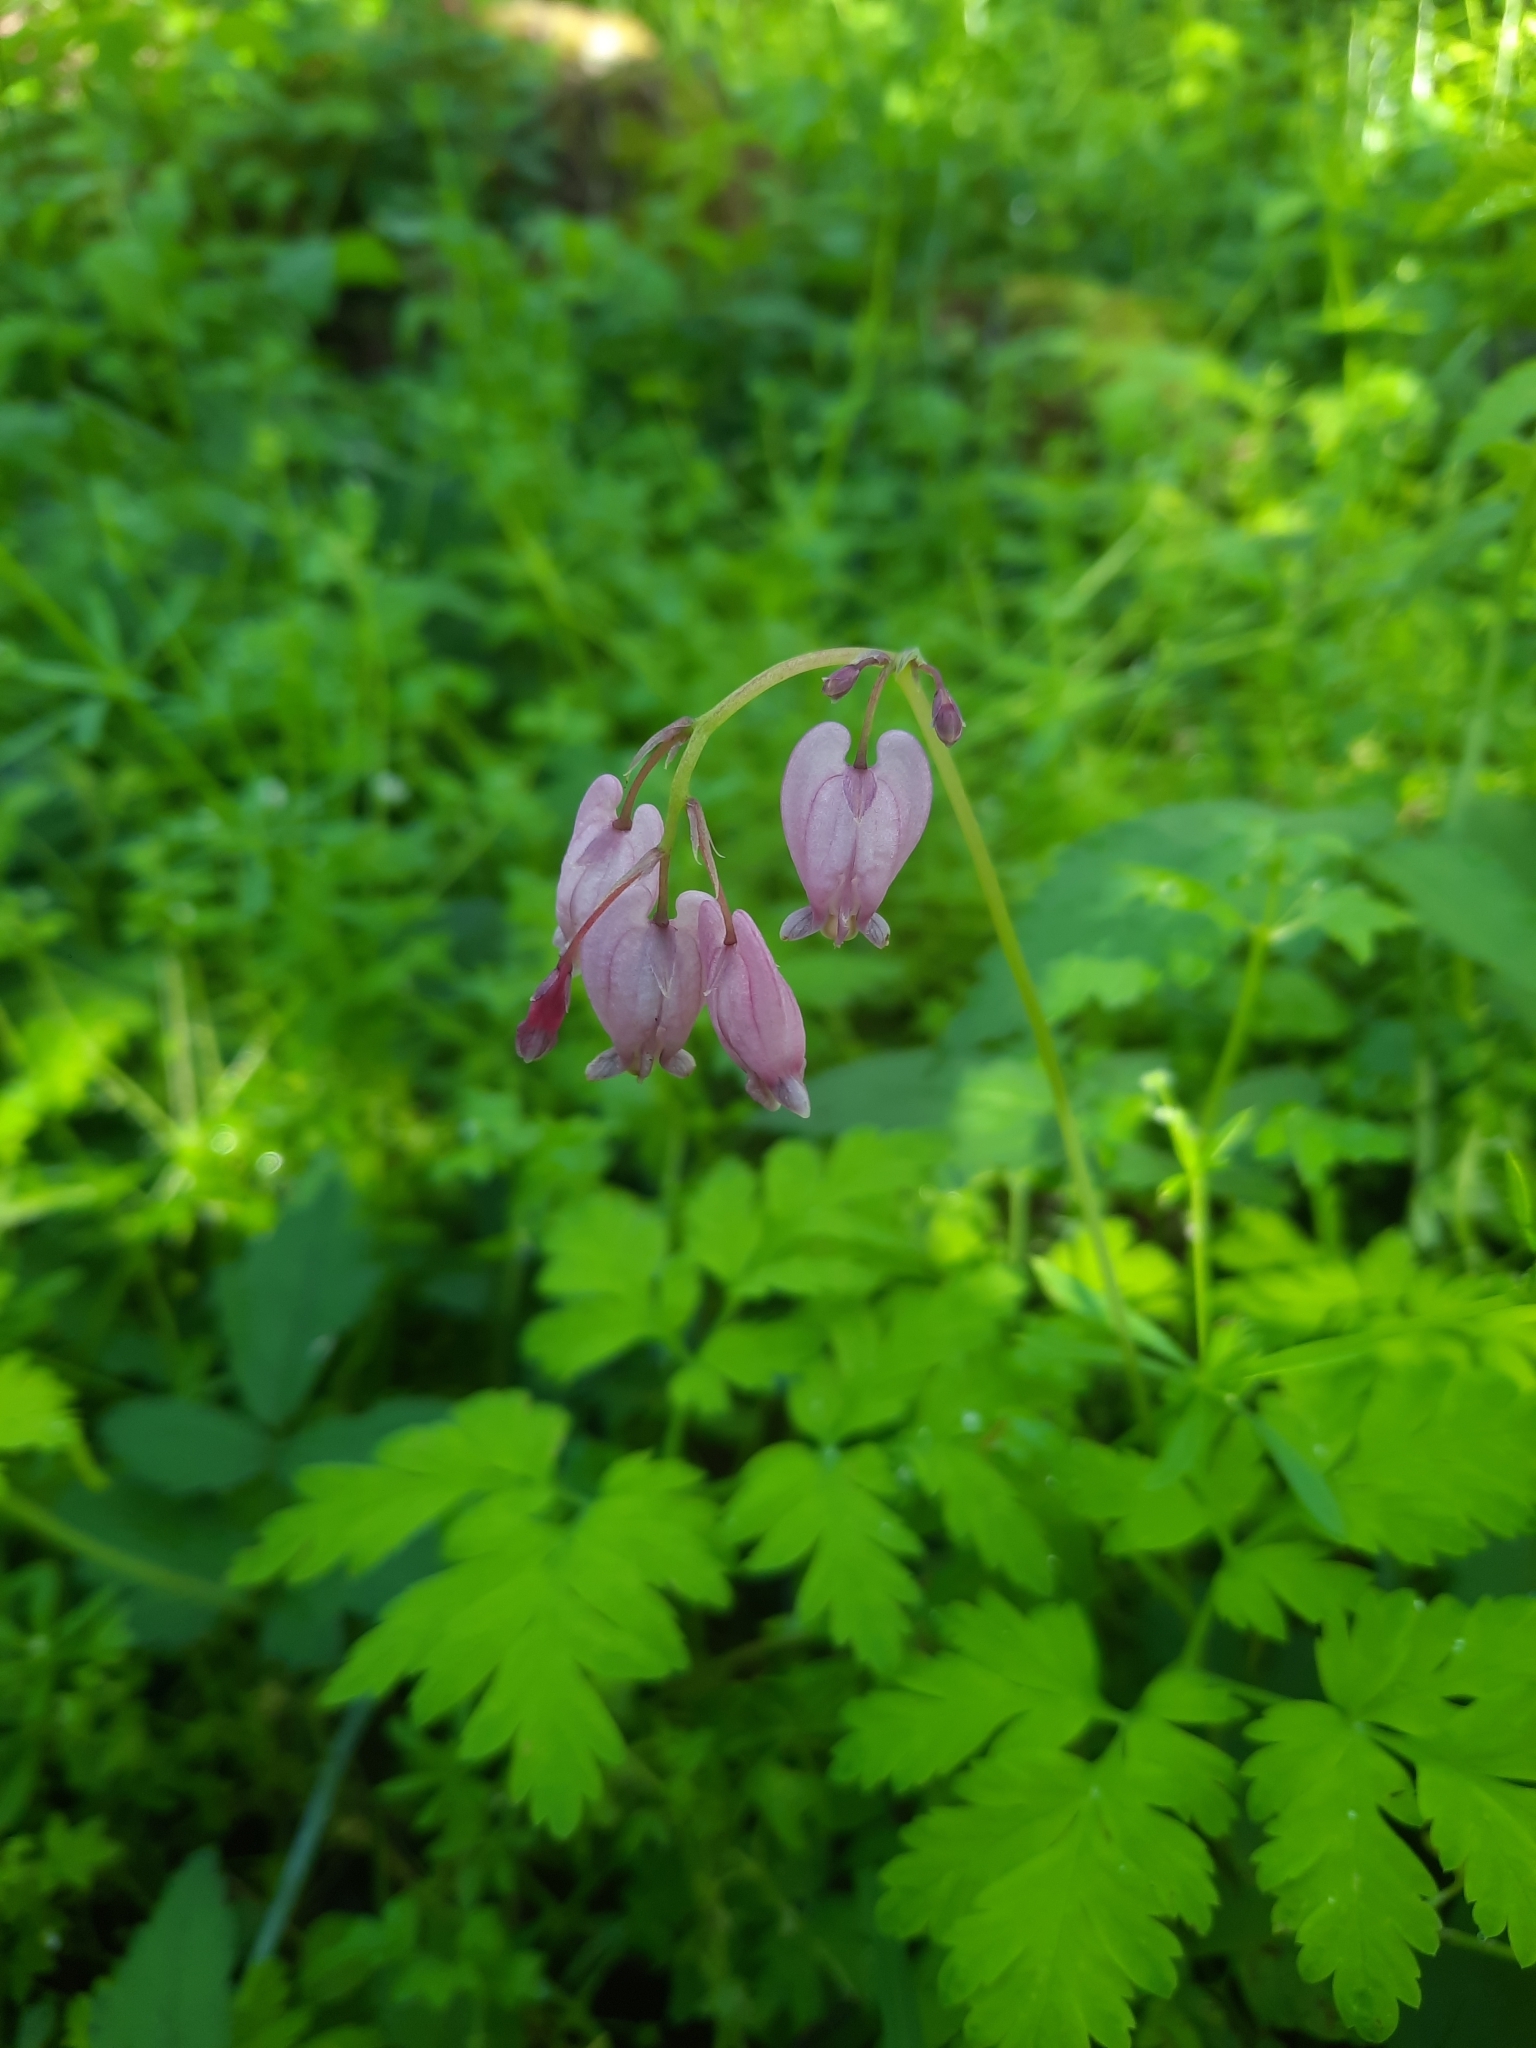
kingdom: Plantae
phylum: Tracheophyta
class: Magnoliopsida
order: Ranunculales
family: Papaveraceae
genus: Dicentra
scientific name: Dicentra formosa
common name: Bleeding-heart
